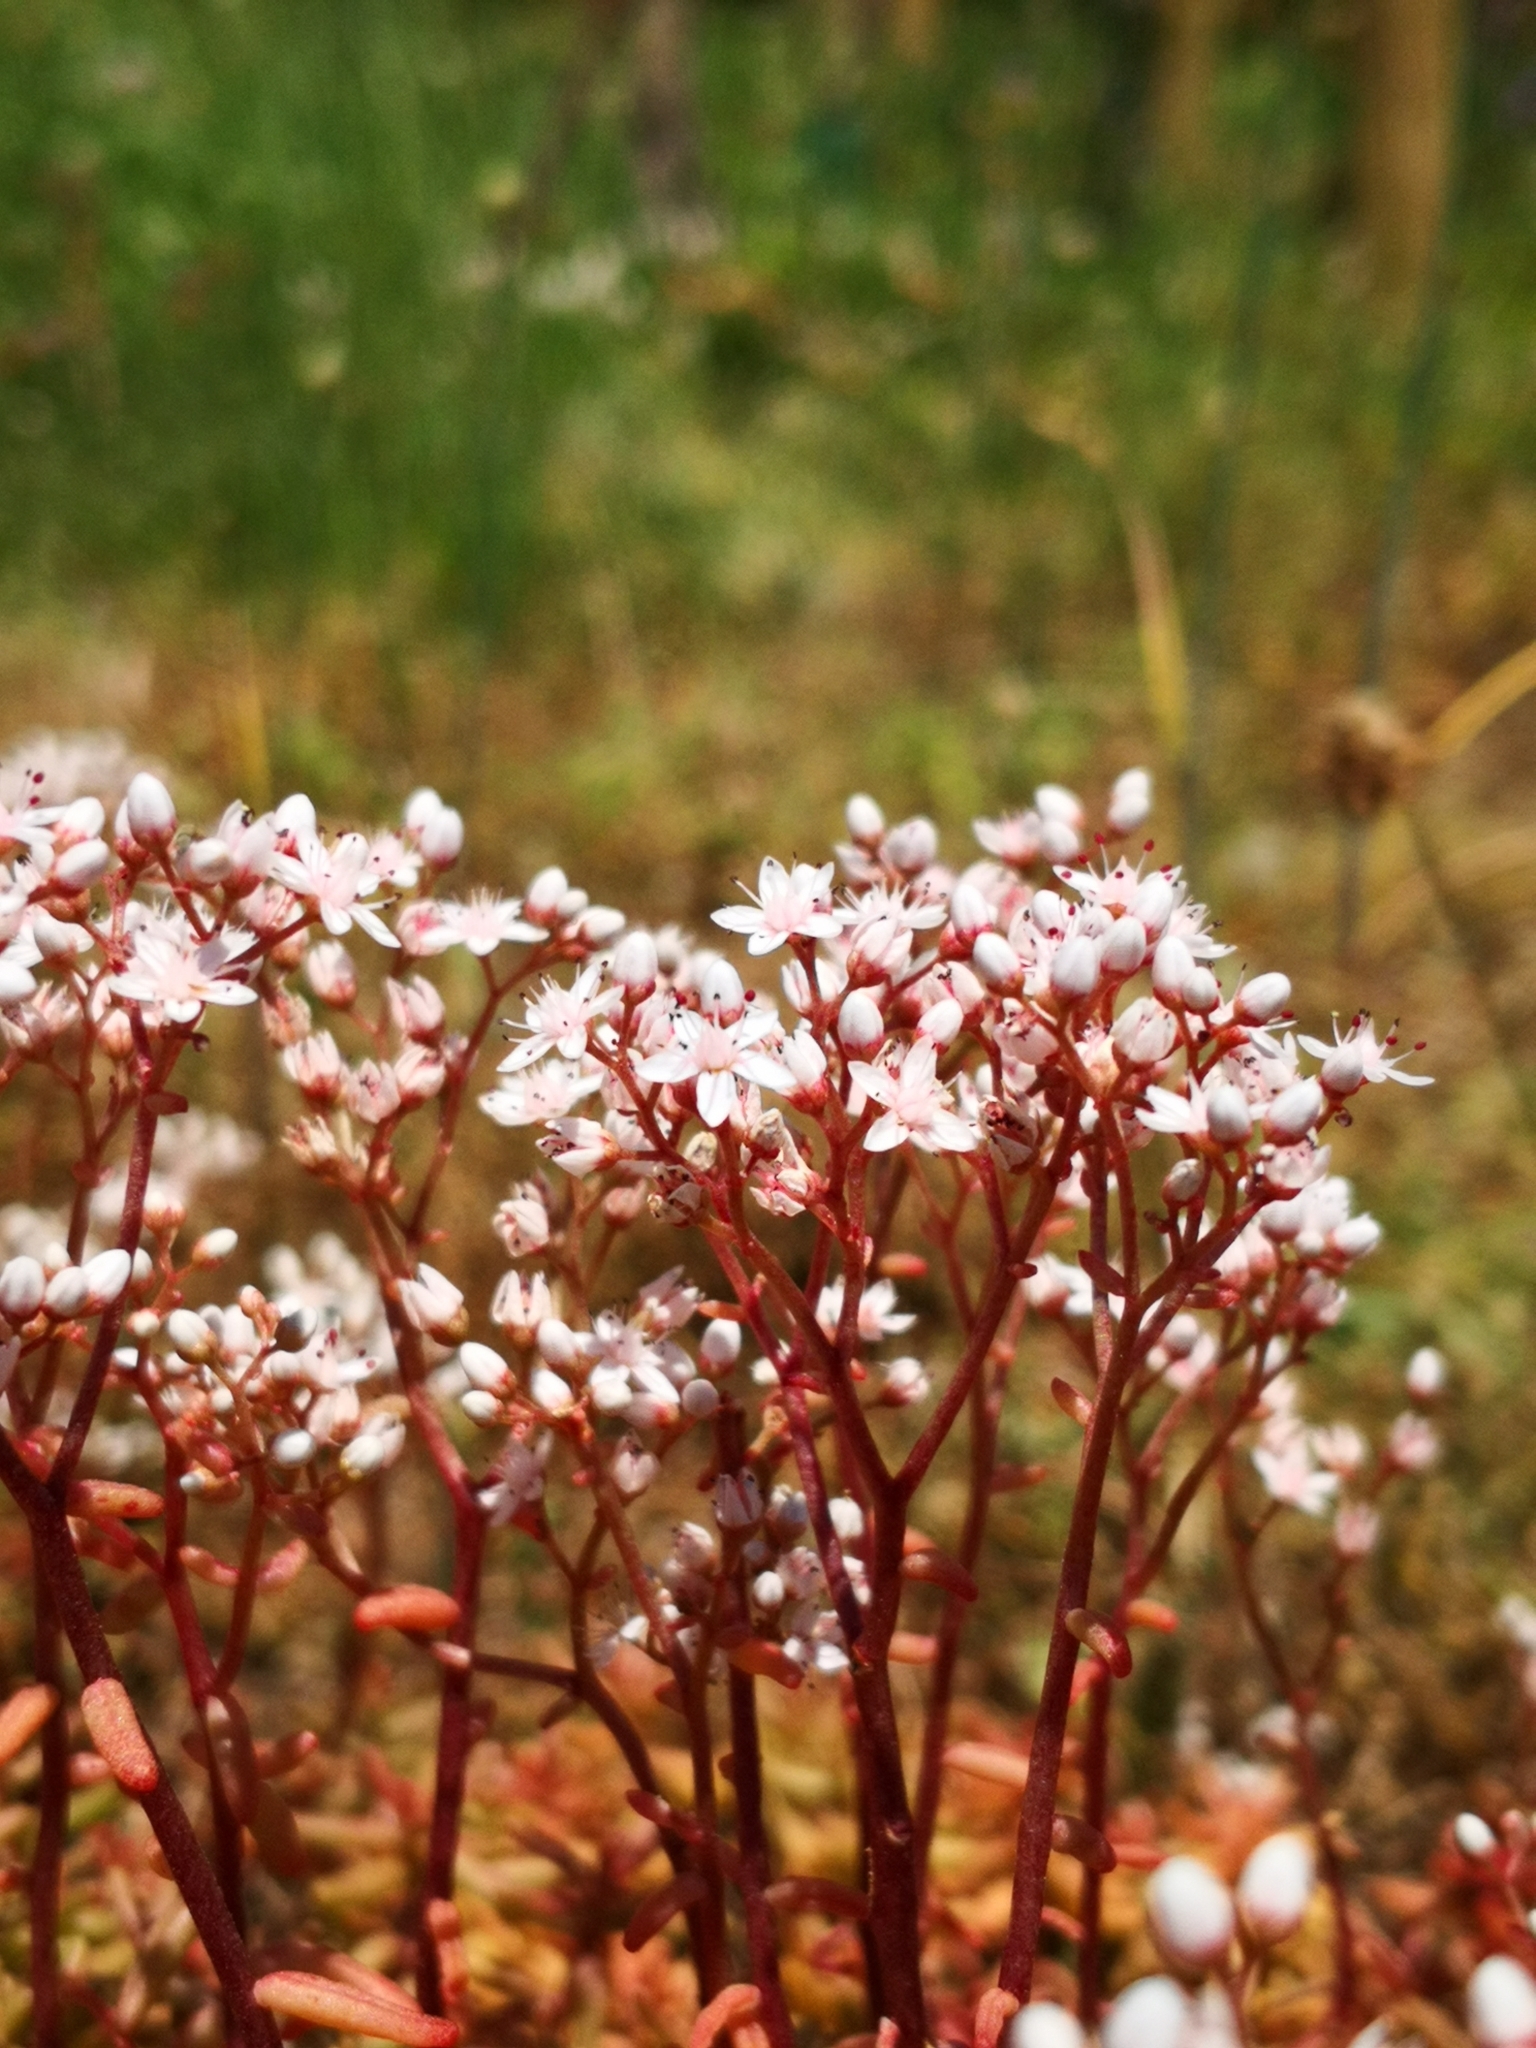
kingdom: Plantae
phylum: Tracheophyta
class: Magnoliopsida
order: Saxifragales
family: Crassulaceae
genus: Sedum
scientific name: Sedum album
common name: White stonecrop
